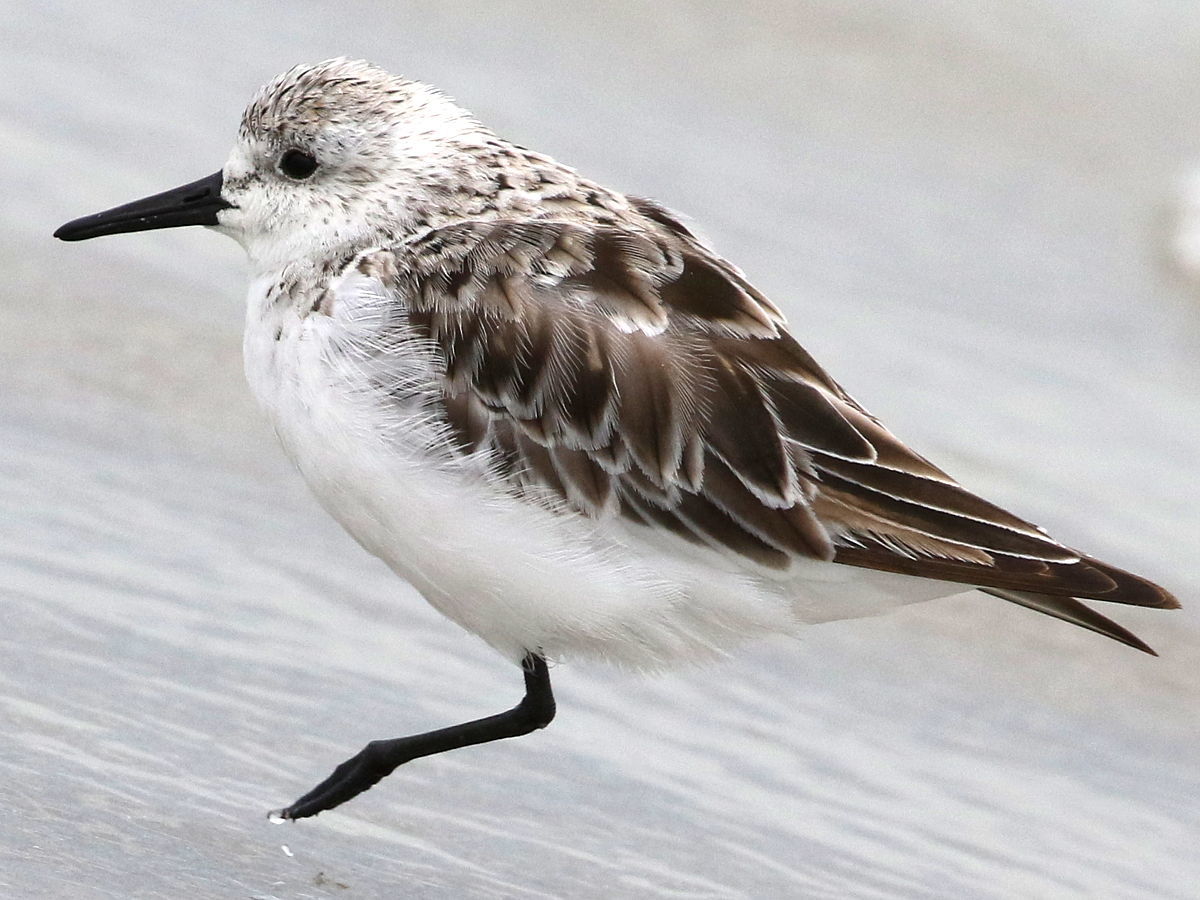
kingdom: Animalia
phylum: Chordata
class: Aves
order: Charadriiformes
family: Scolopacidae
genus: Calidris
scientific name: Calidris alba
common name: Sanderling
